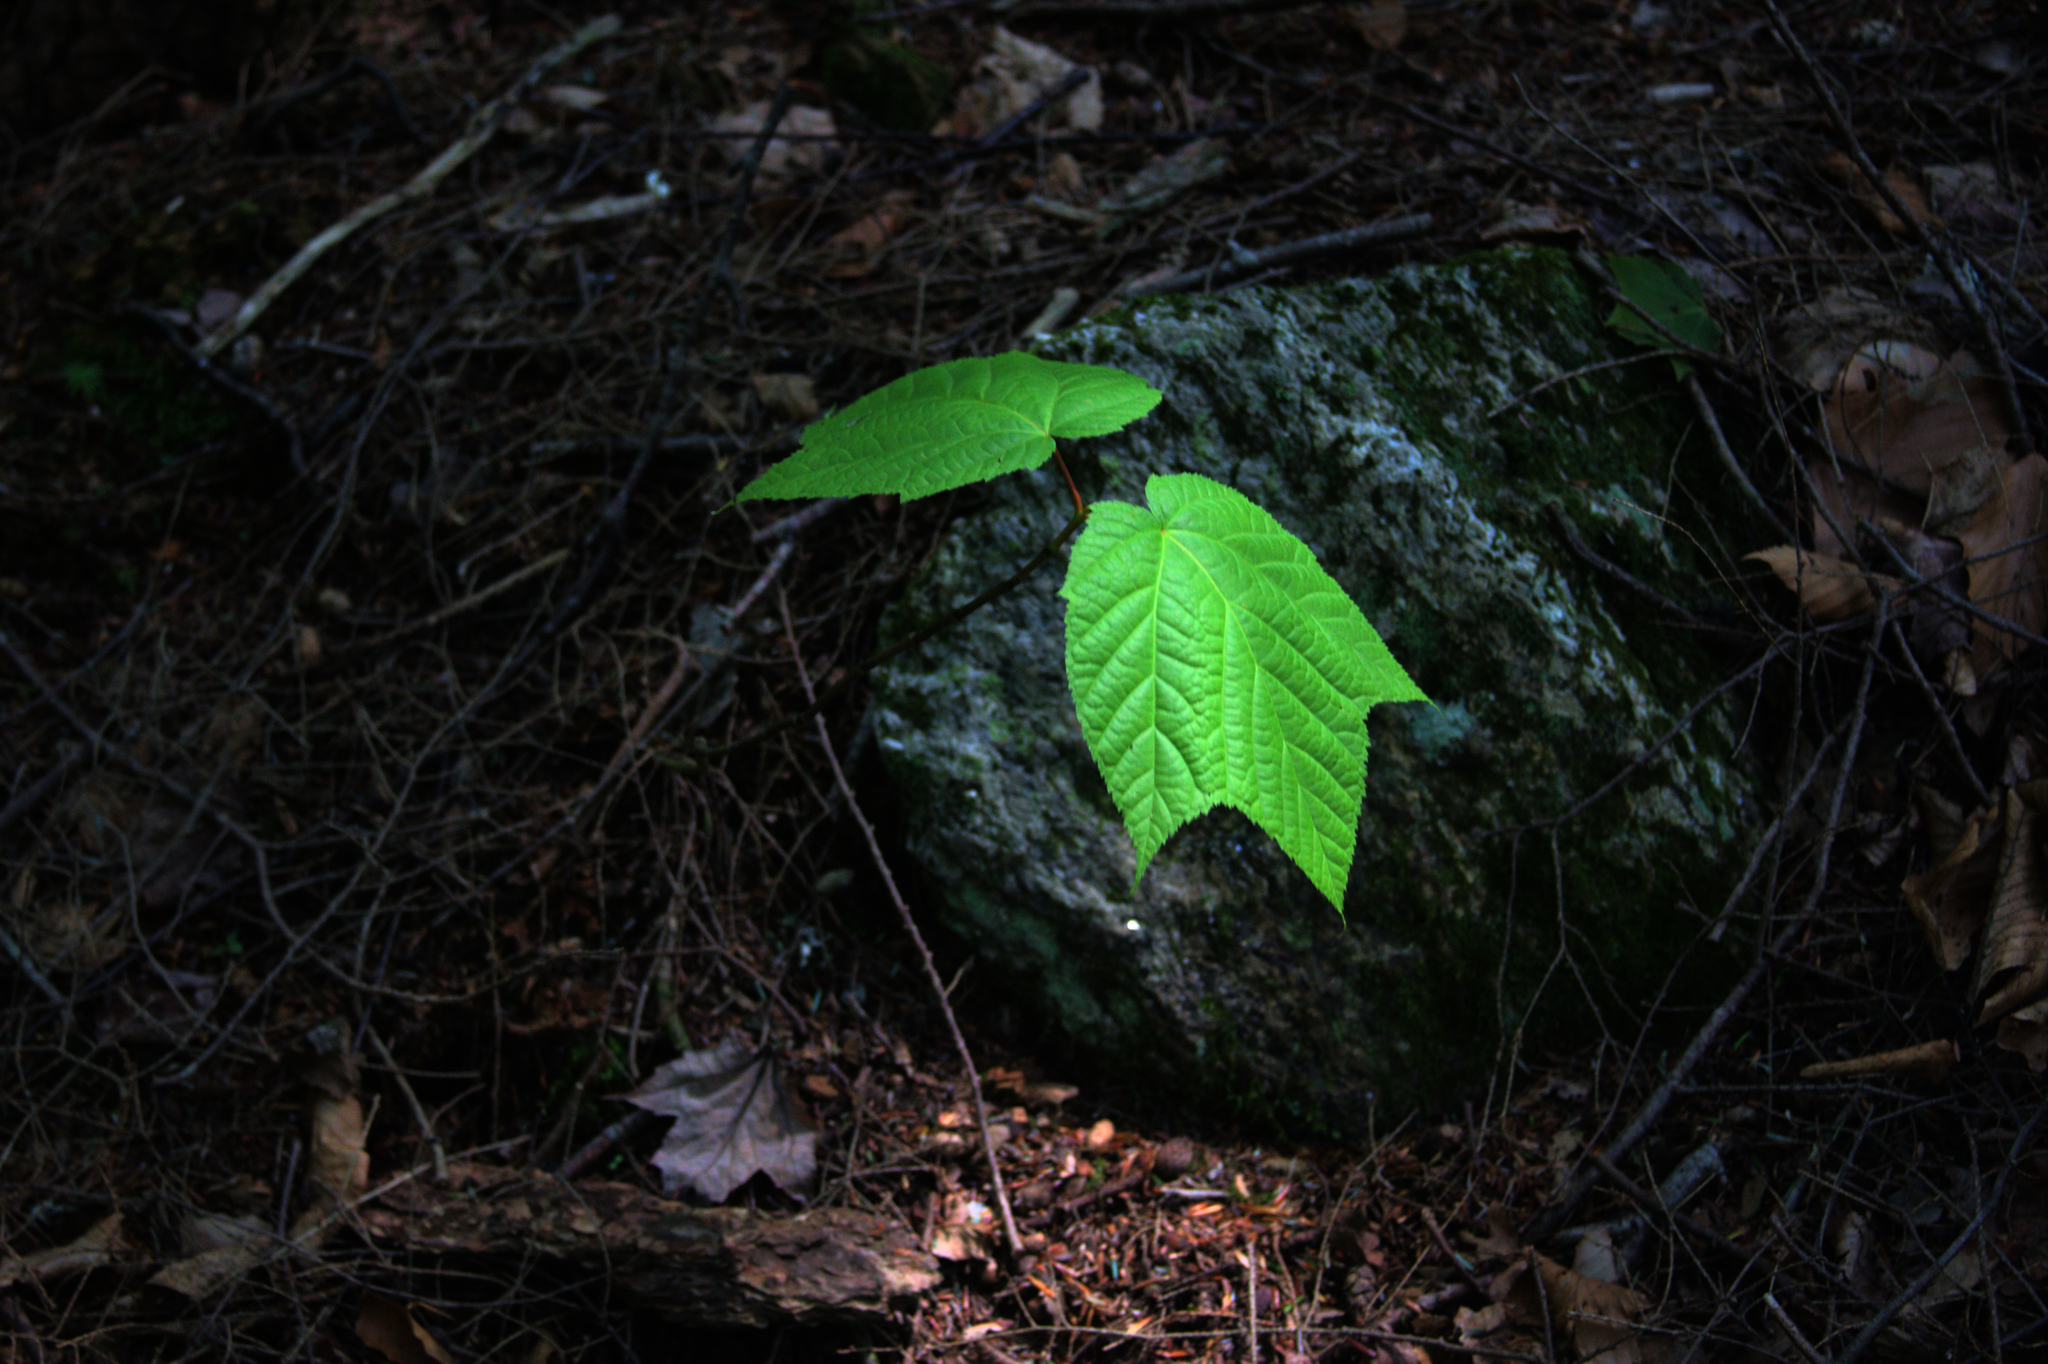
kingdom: Plantae
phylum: Tracheophyta
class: Magnoliopsida
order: Sapindales
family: Sapindaceae
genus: Acer
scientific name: Acer pensylvanicum
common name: Moosewood
